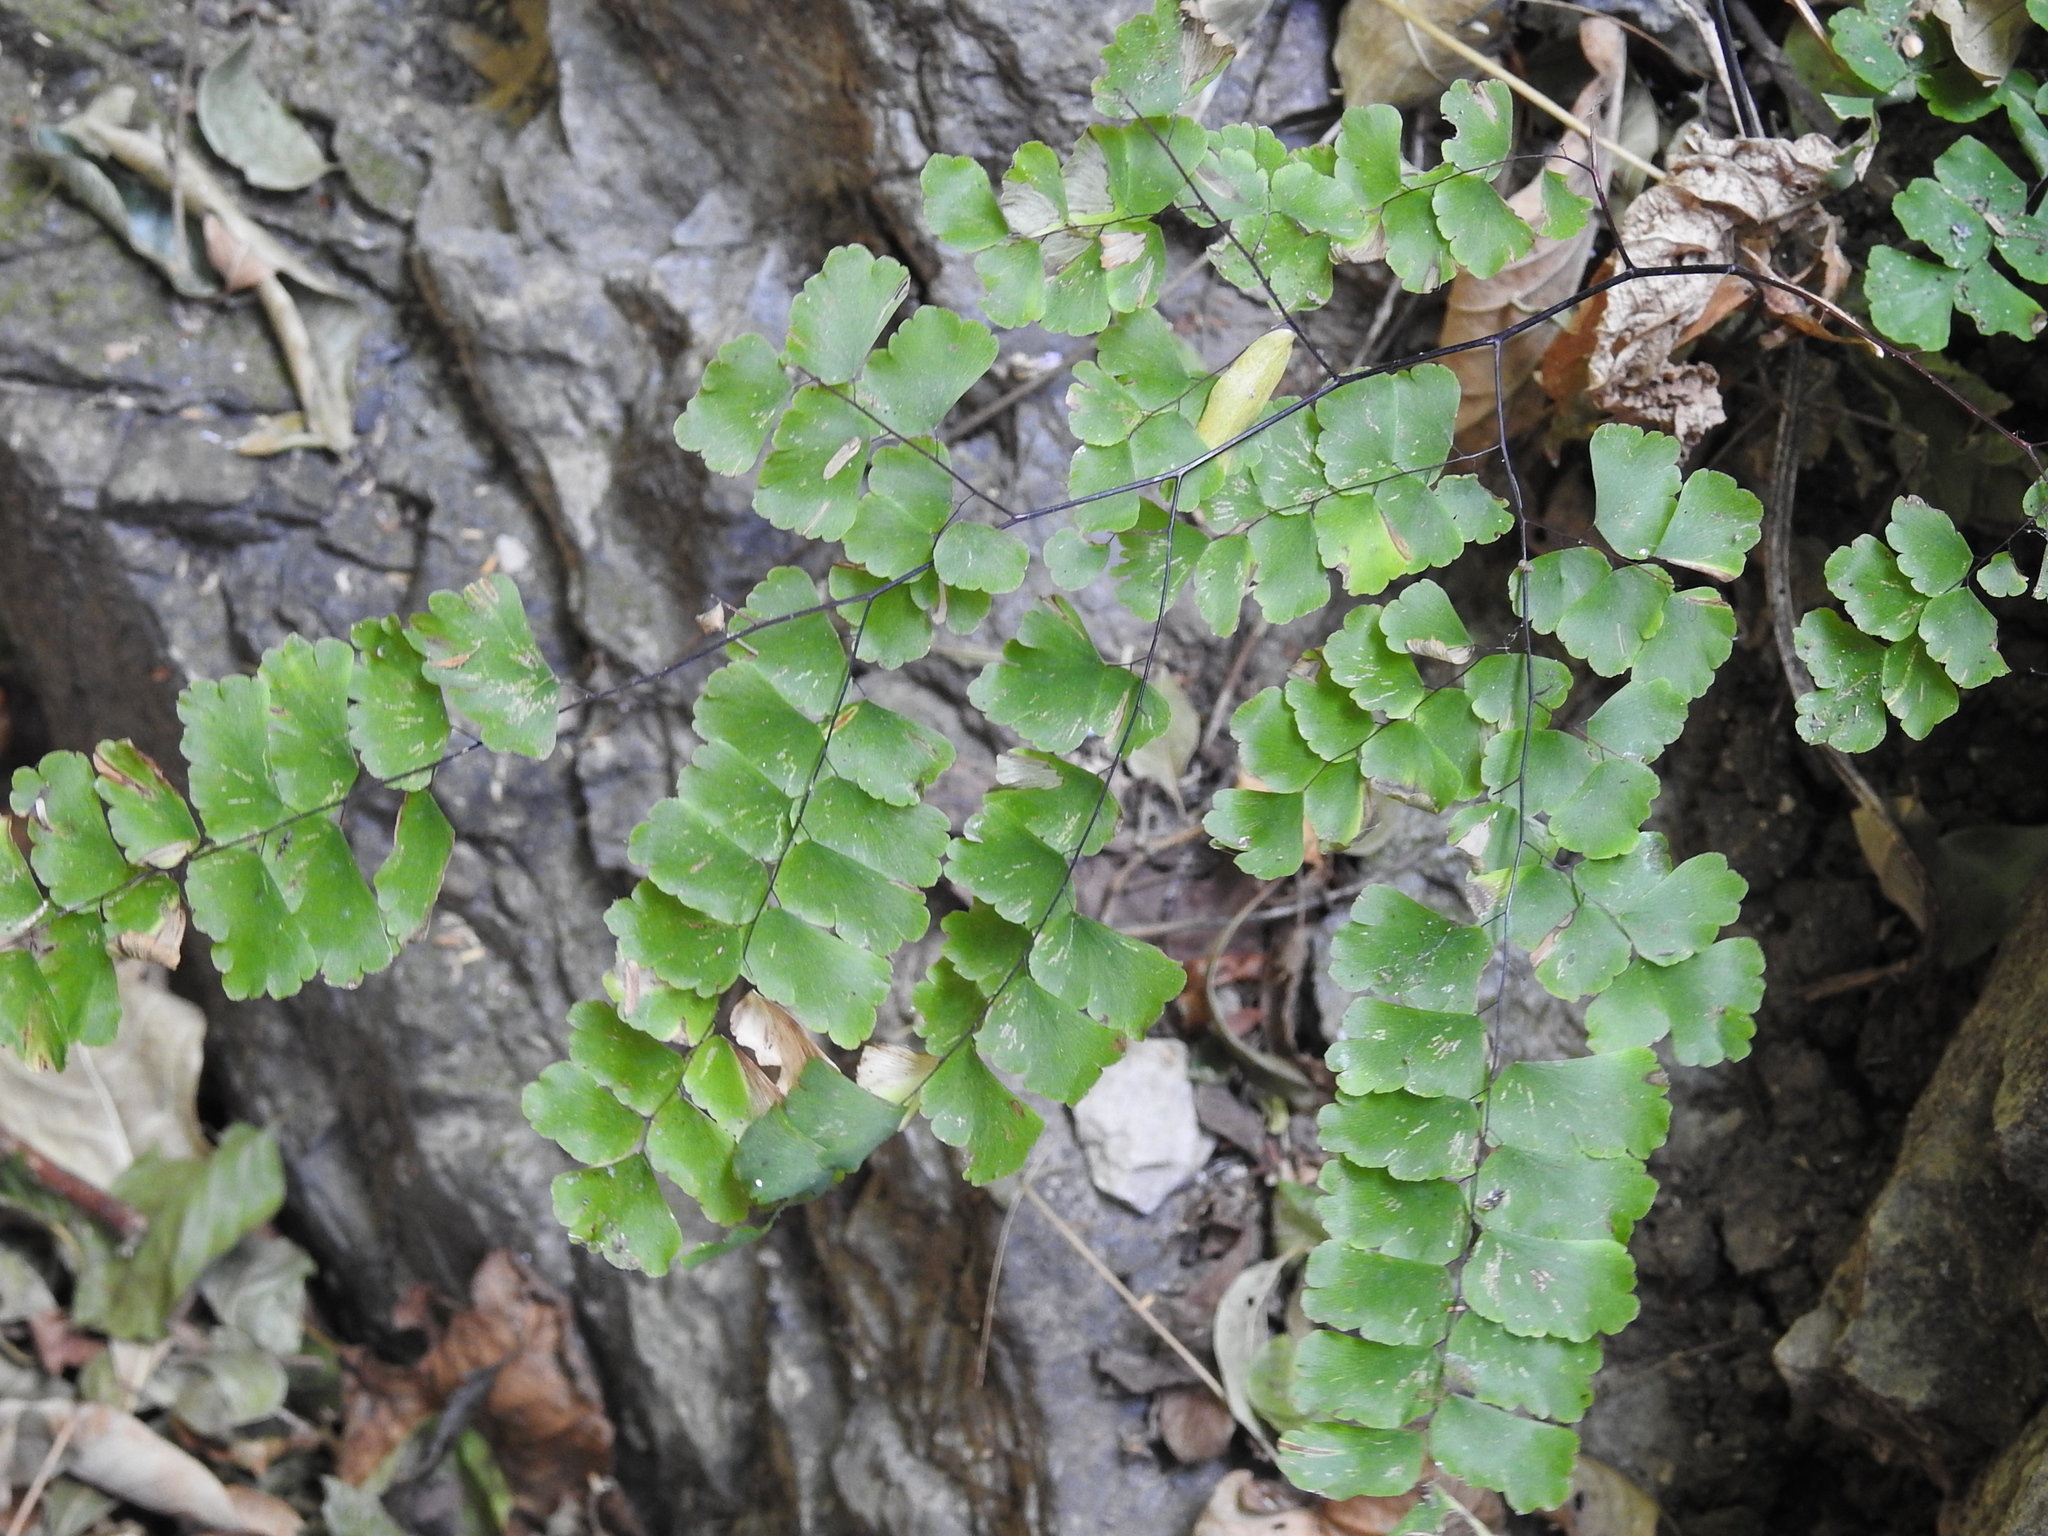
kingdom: Plantae
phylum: Tracheophyta
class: Polypodiopsida
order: Polypodiales
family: Pteridaceae
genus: Adiantum
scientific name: Adiantum amplum
